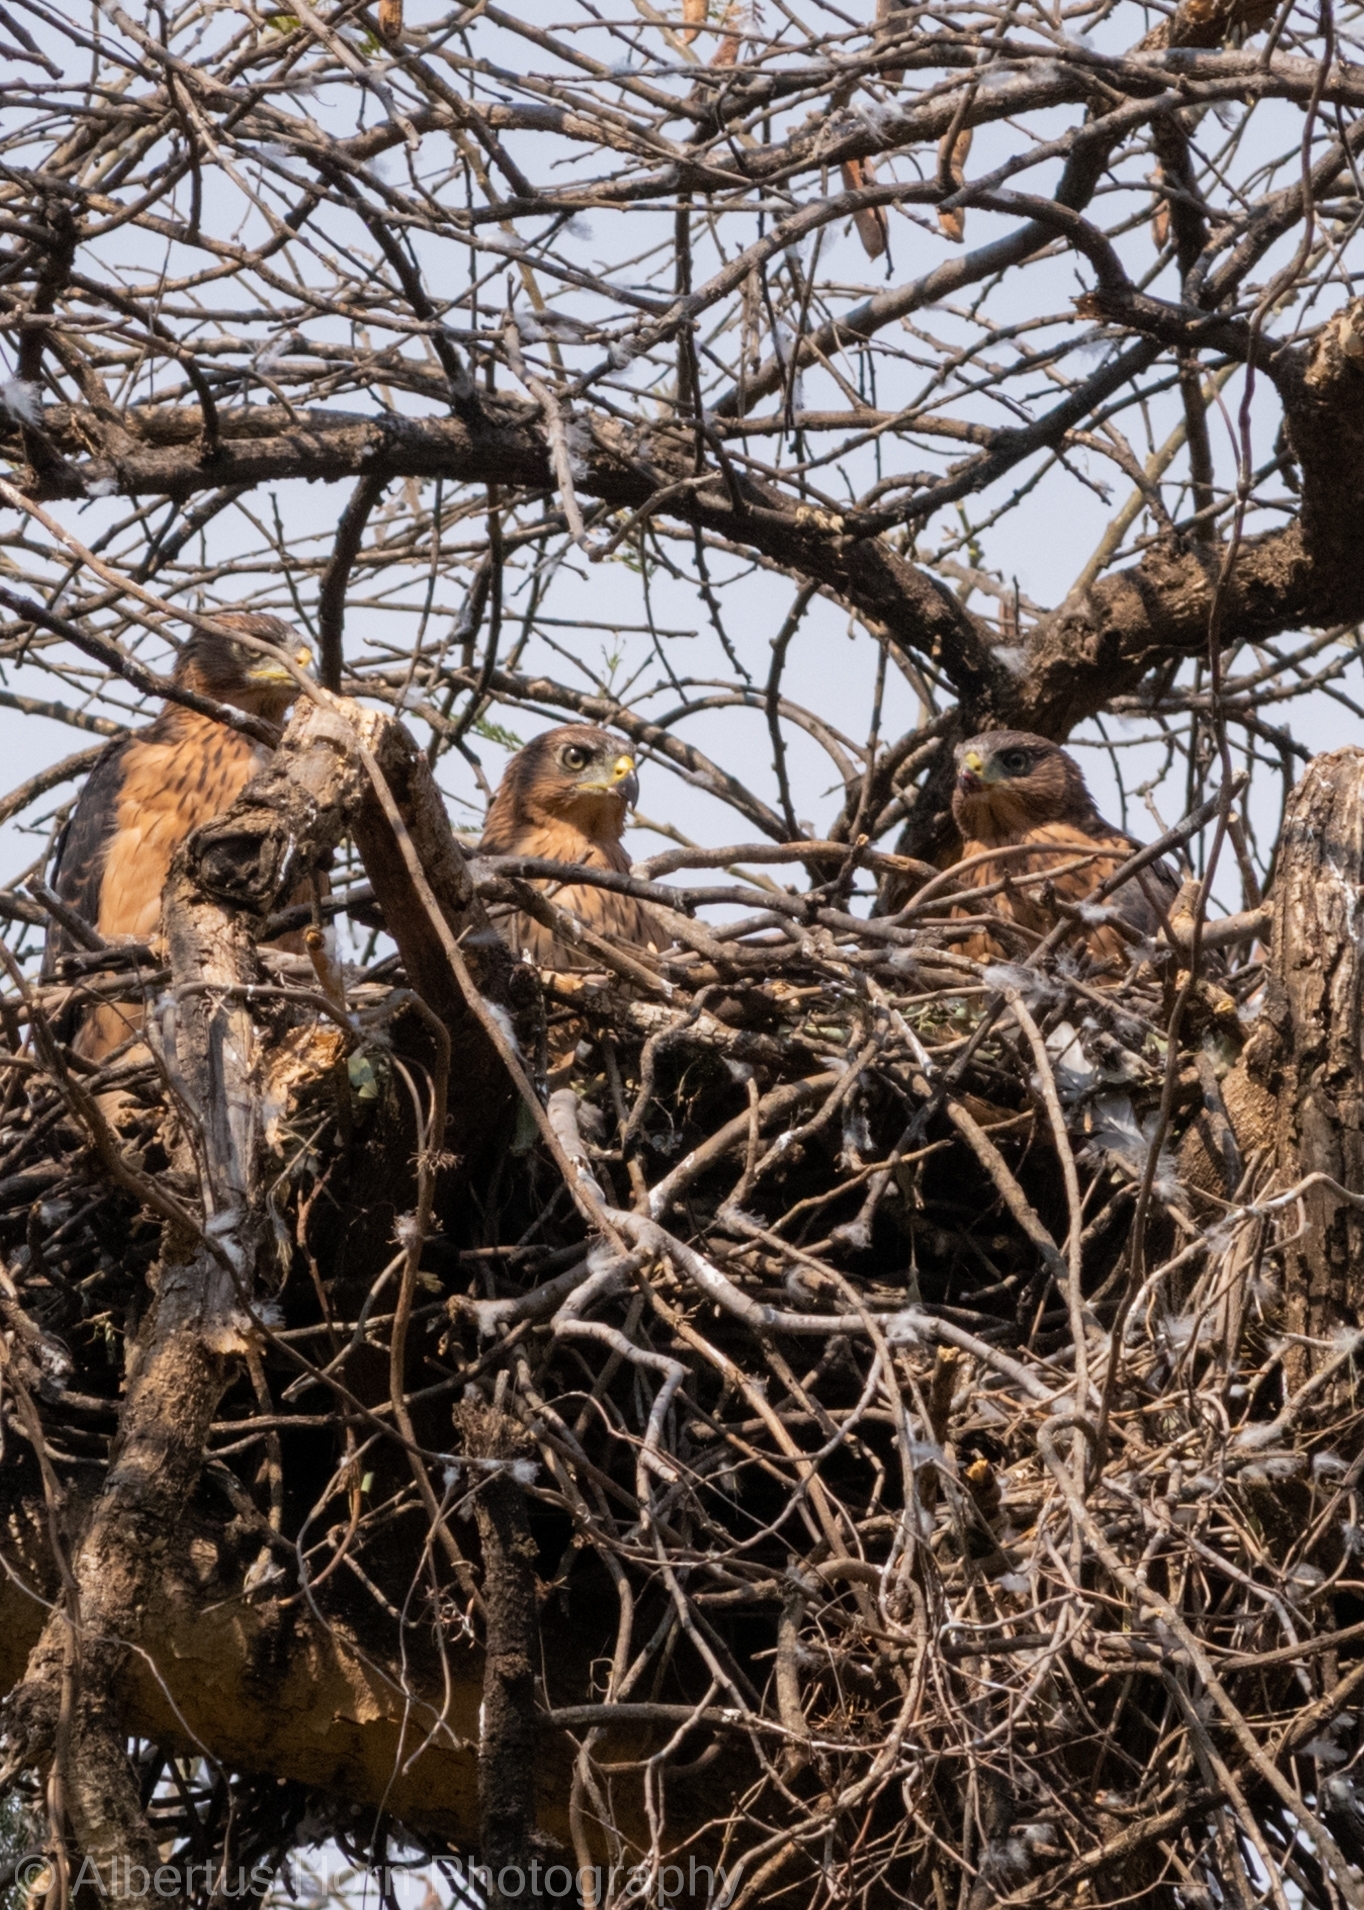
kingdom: Animalia
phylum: Chordata
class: Aves
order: Accipitriformes
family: Accipitridae
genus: Accipiter
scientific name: Accipiter melanoleucus
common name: Black sparrowhawk
